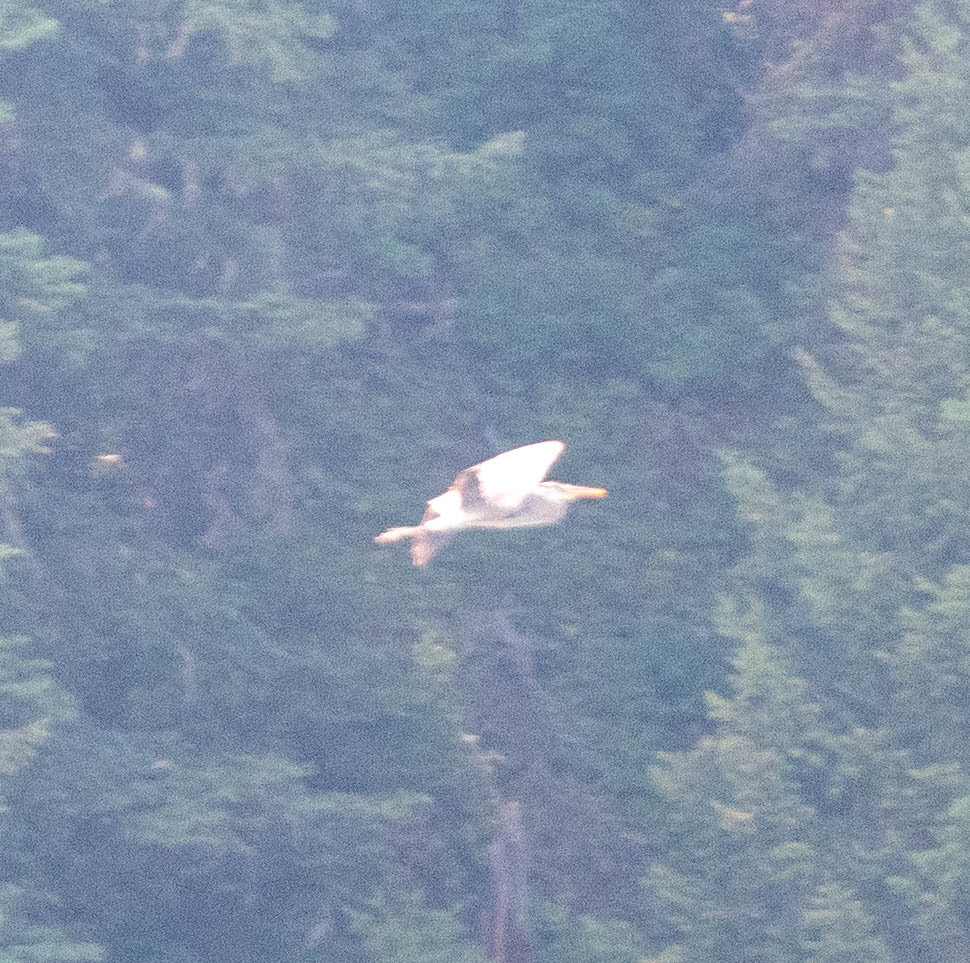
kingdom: Animalia
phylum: Chordata
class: Aves
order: Pelecaniformes
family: Ardeidae
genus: Ardea
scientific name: Ardea herodias
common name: Great blue heron
